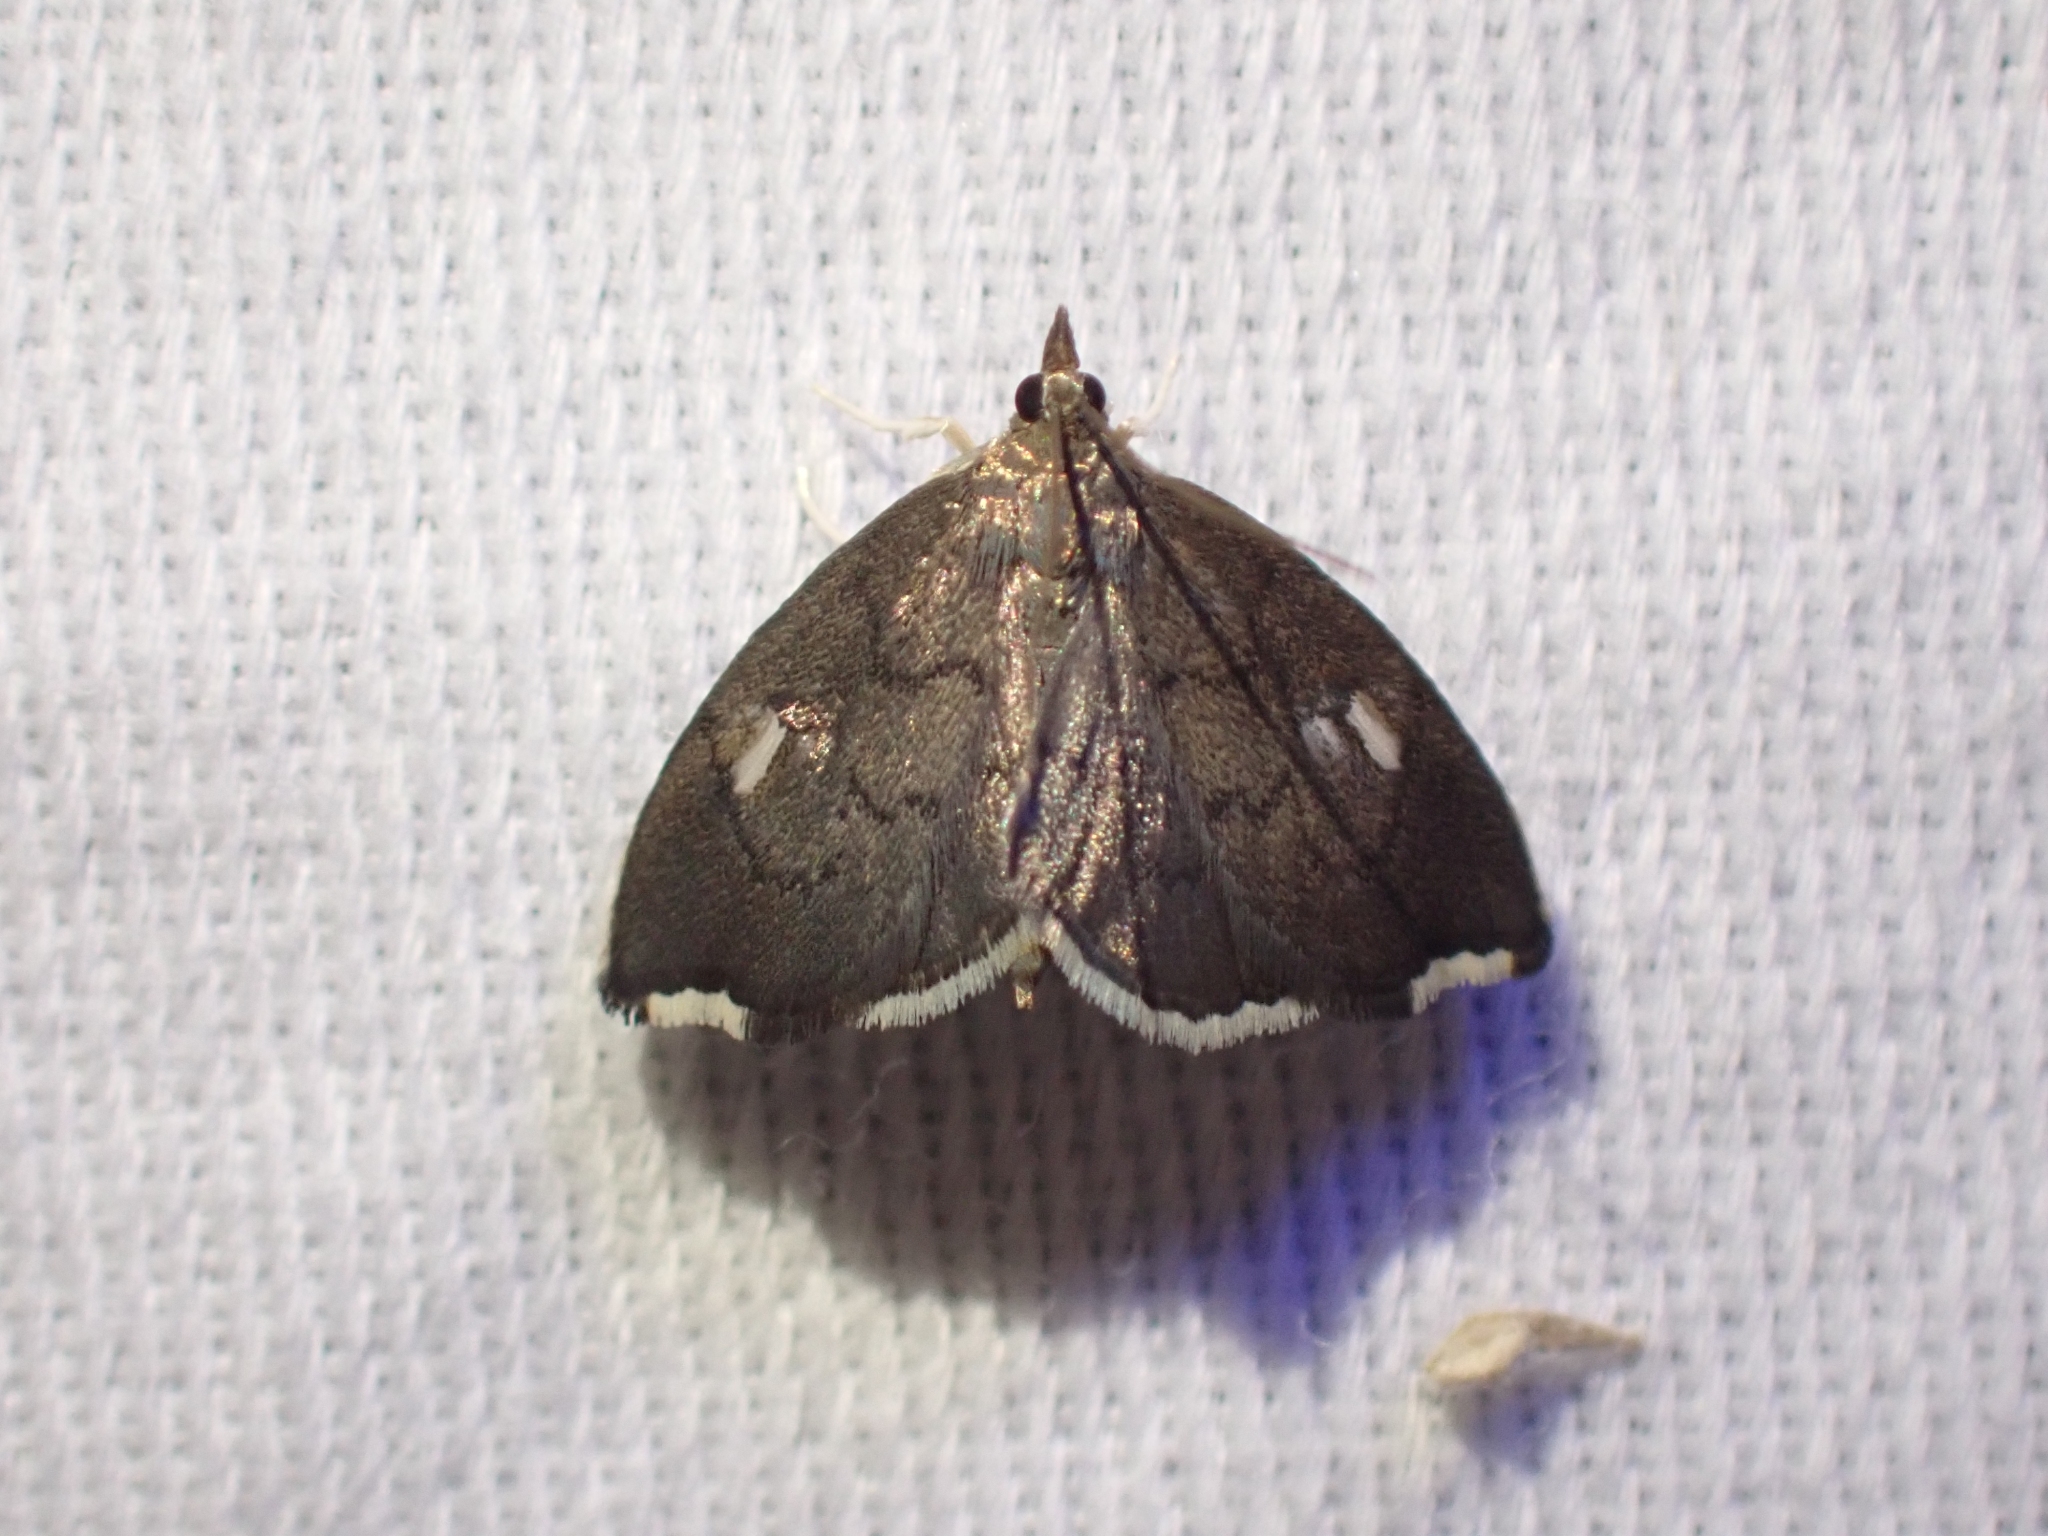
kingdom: Animalia
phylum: Arthropoda
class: Insecta
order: Lepidoptera
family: Crambidae
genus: Perispasta
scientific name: Perispasta caeculalis
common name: Titian peale's moth
